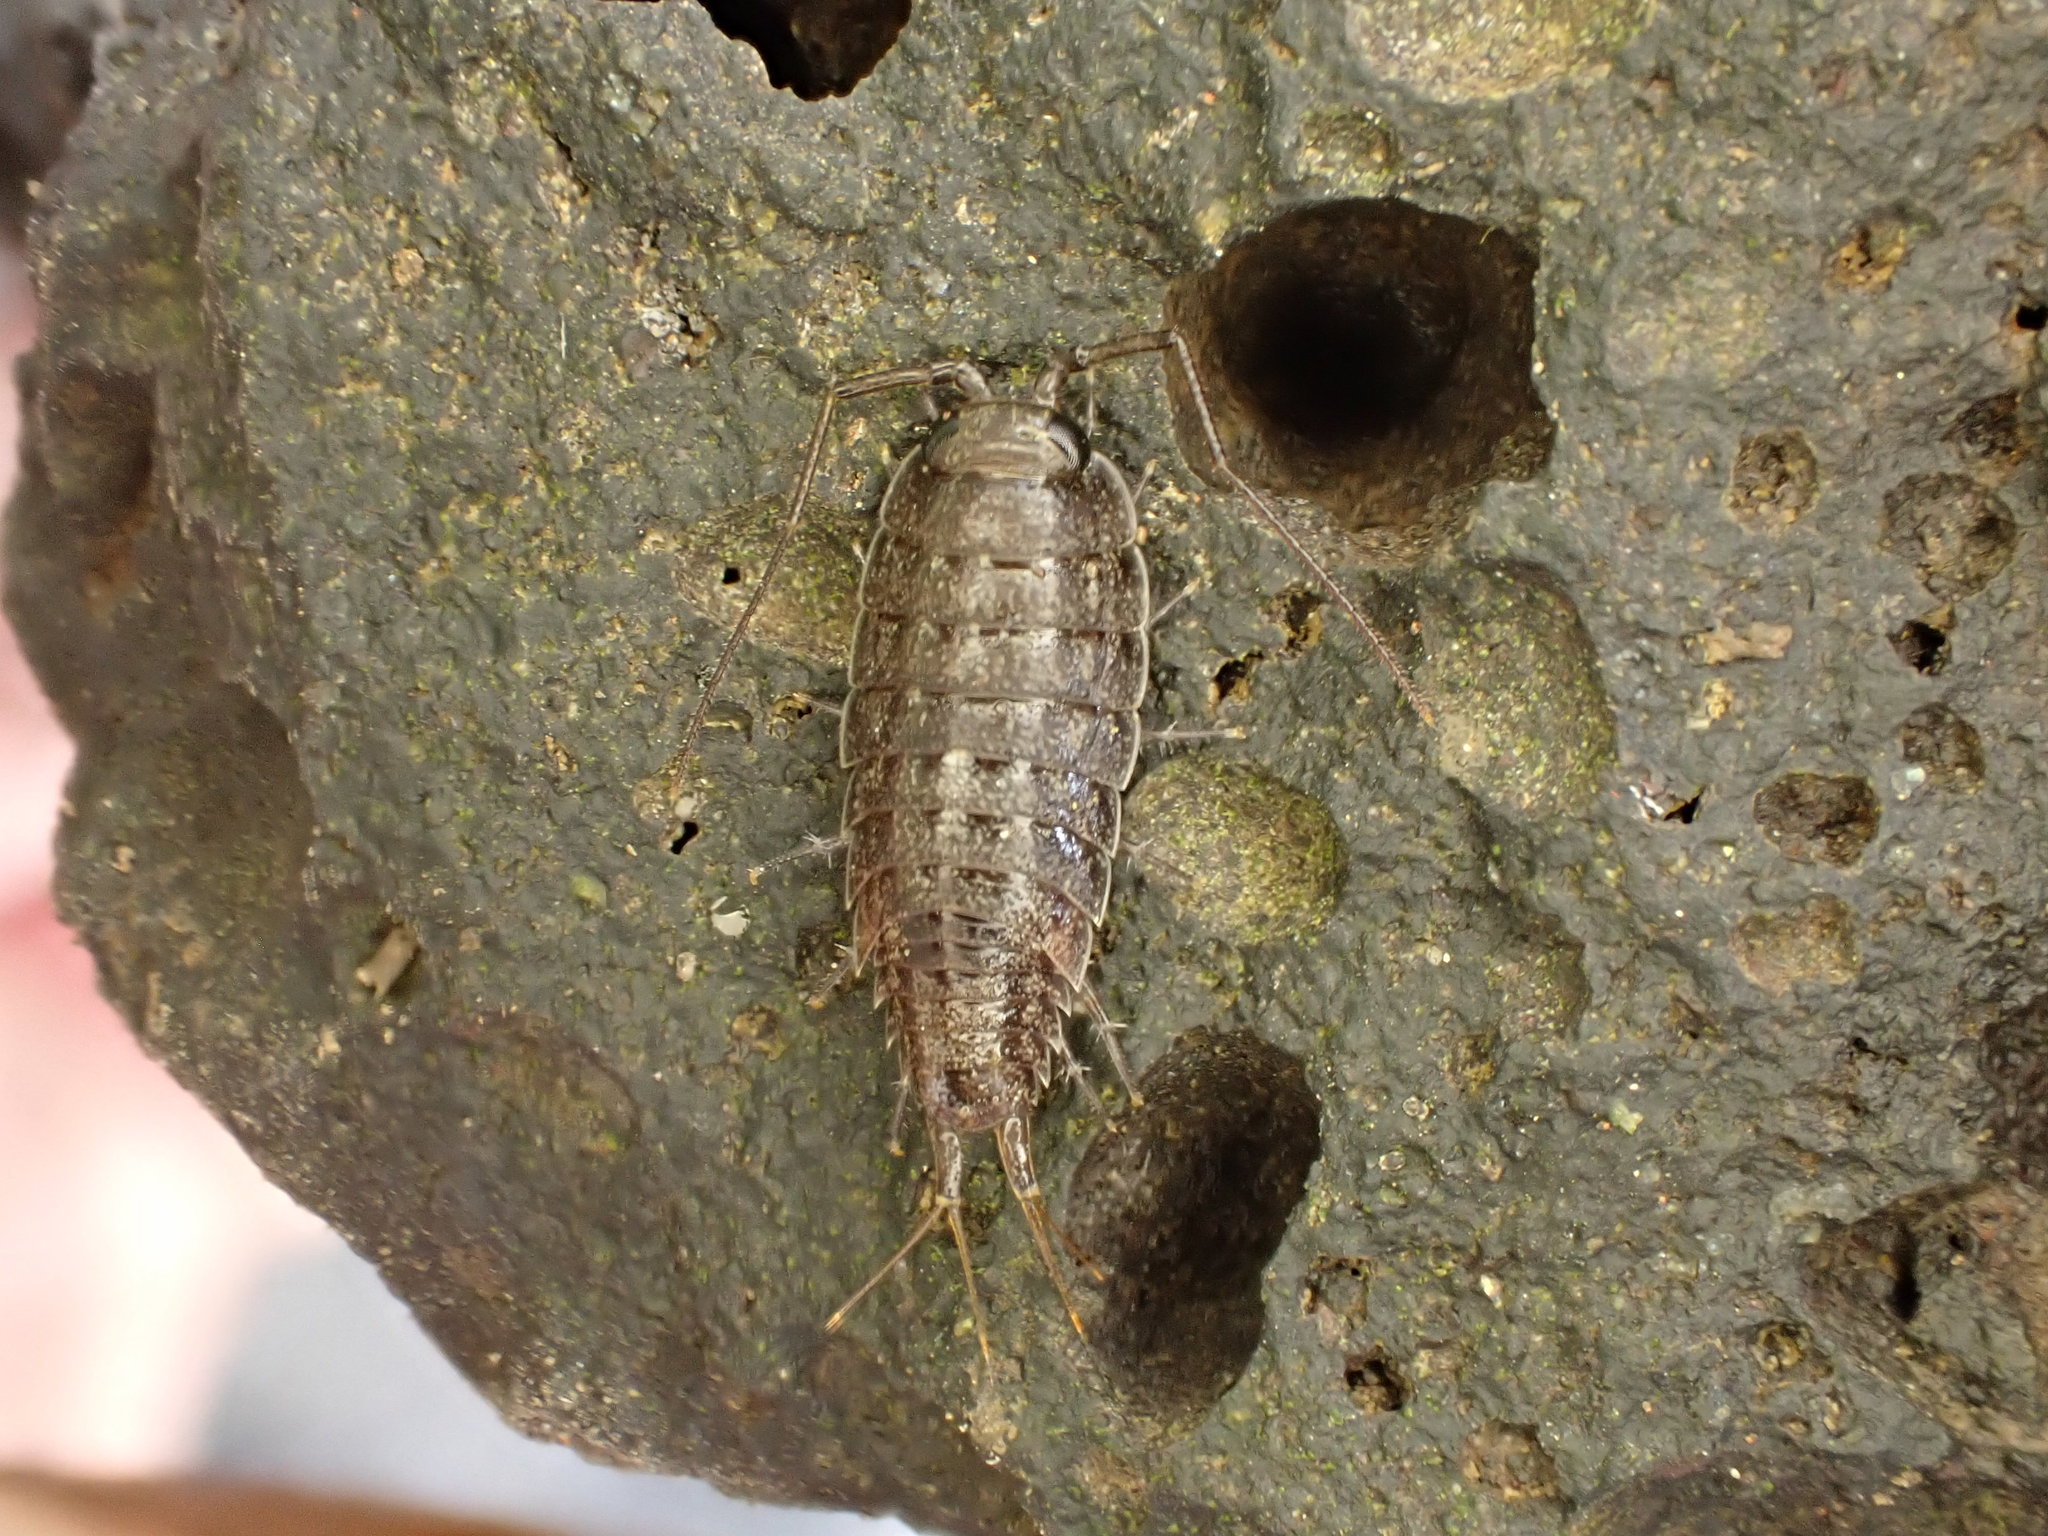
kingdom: Animalia
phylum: Arthropoda
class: Malacostraca
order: Isopoda
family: Ligiidae
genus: Ligia
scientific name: Ligia novizealandiae
